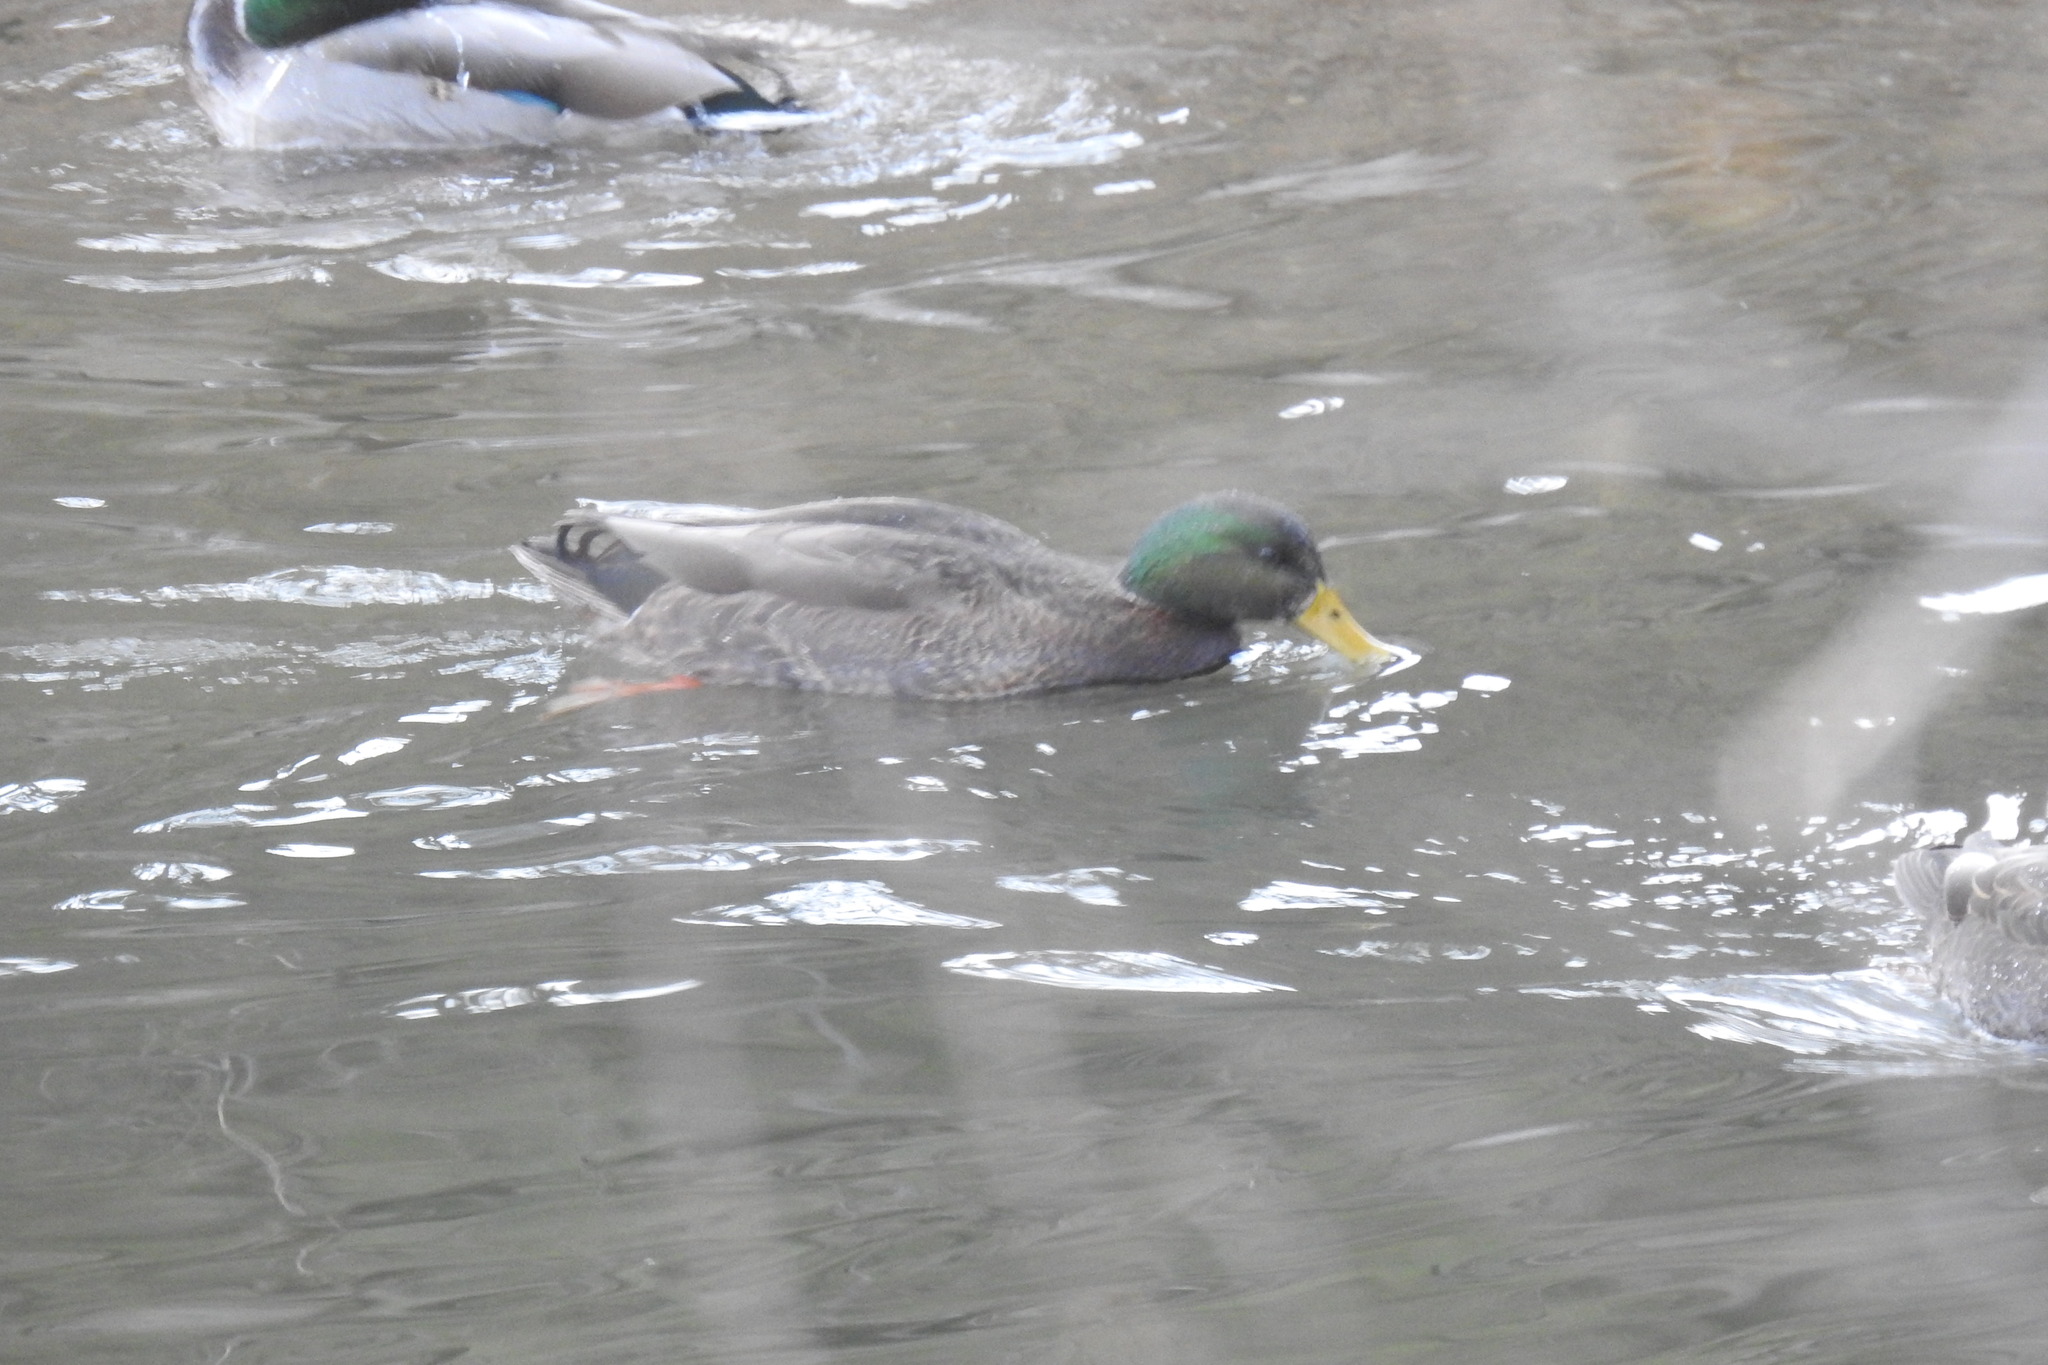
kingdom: Animalia
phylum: Chordata
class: Aves
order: Anseriformes
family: Anatidae
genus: Anas
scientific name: Anas
